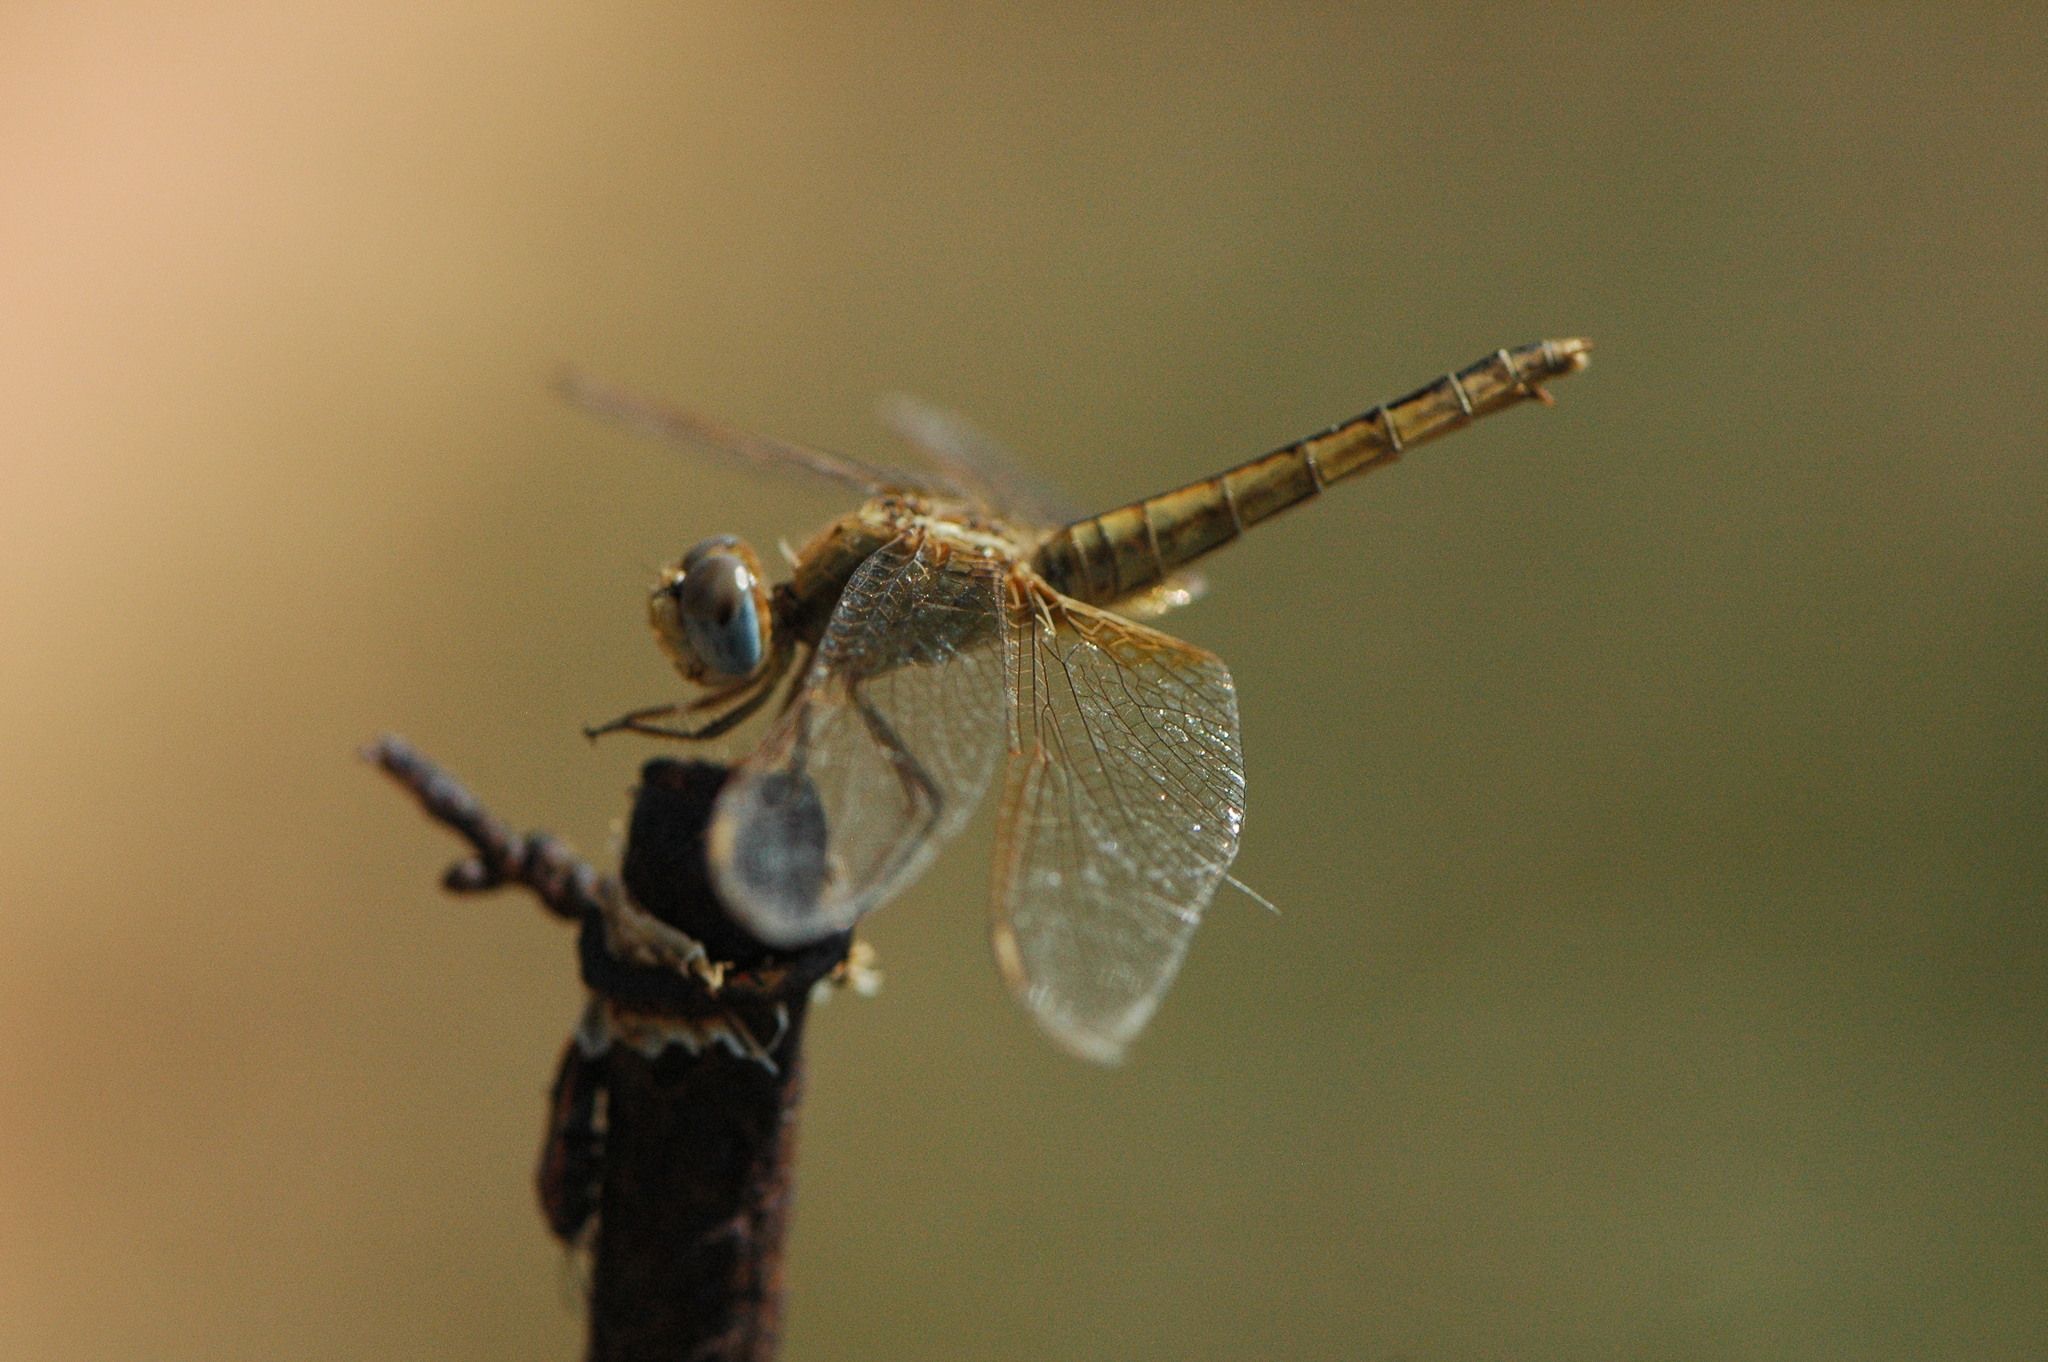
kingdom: Animalia
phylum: Arthropoda
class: Insecta
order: Odonata
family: Libellulidae
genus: Crocothemis
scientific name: Crocothemis erythraea
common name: Scarlet dragonfly
